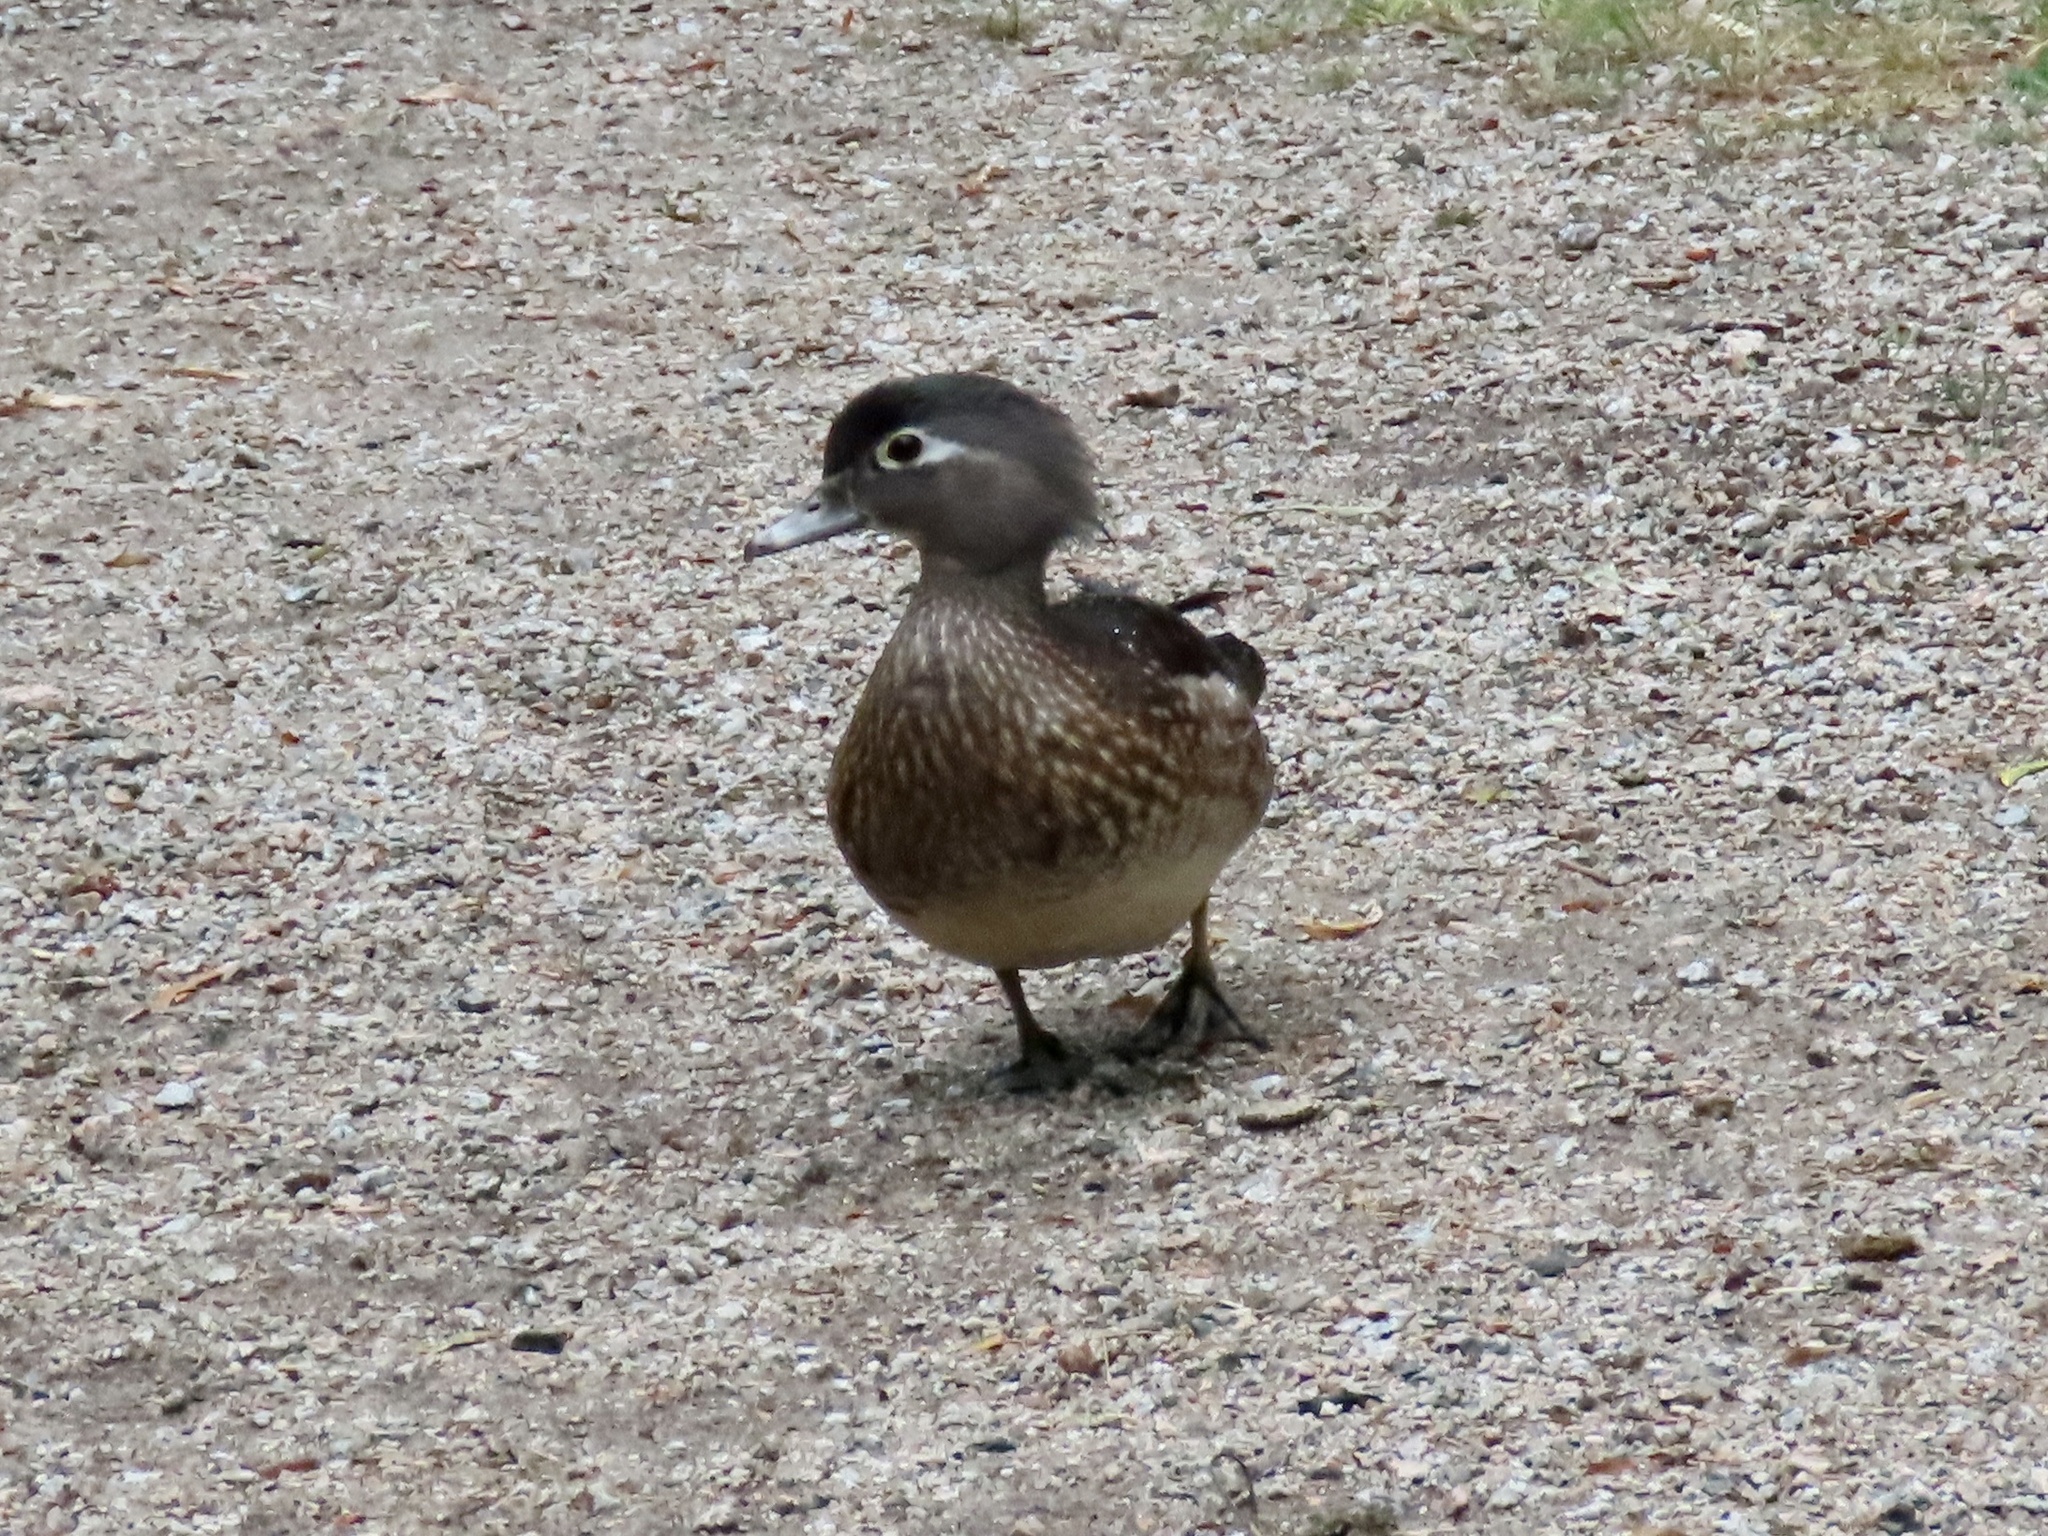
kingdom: Animalia
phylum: Chordata
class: Aves
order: Anseriformes
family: Anatidae
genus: Aix
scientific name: Aix sponsa
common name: Wood duck
